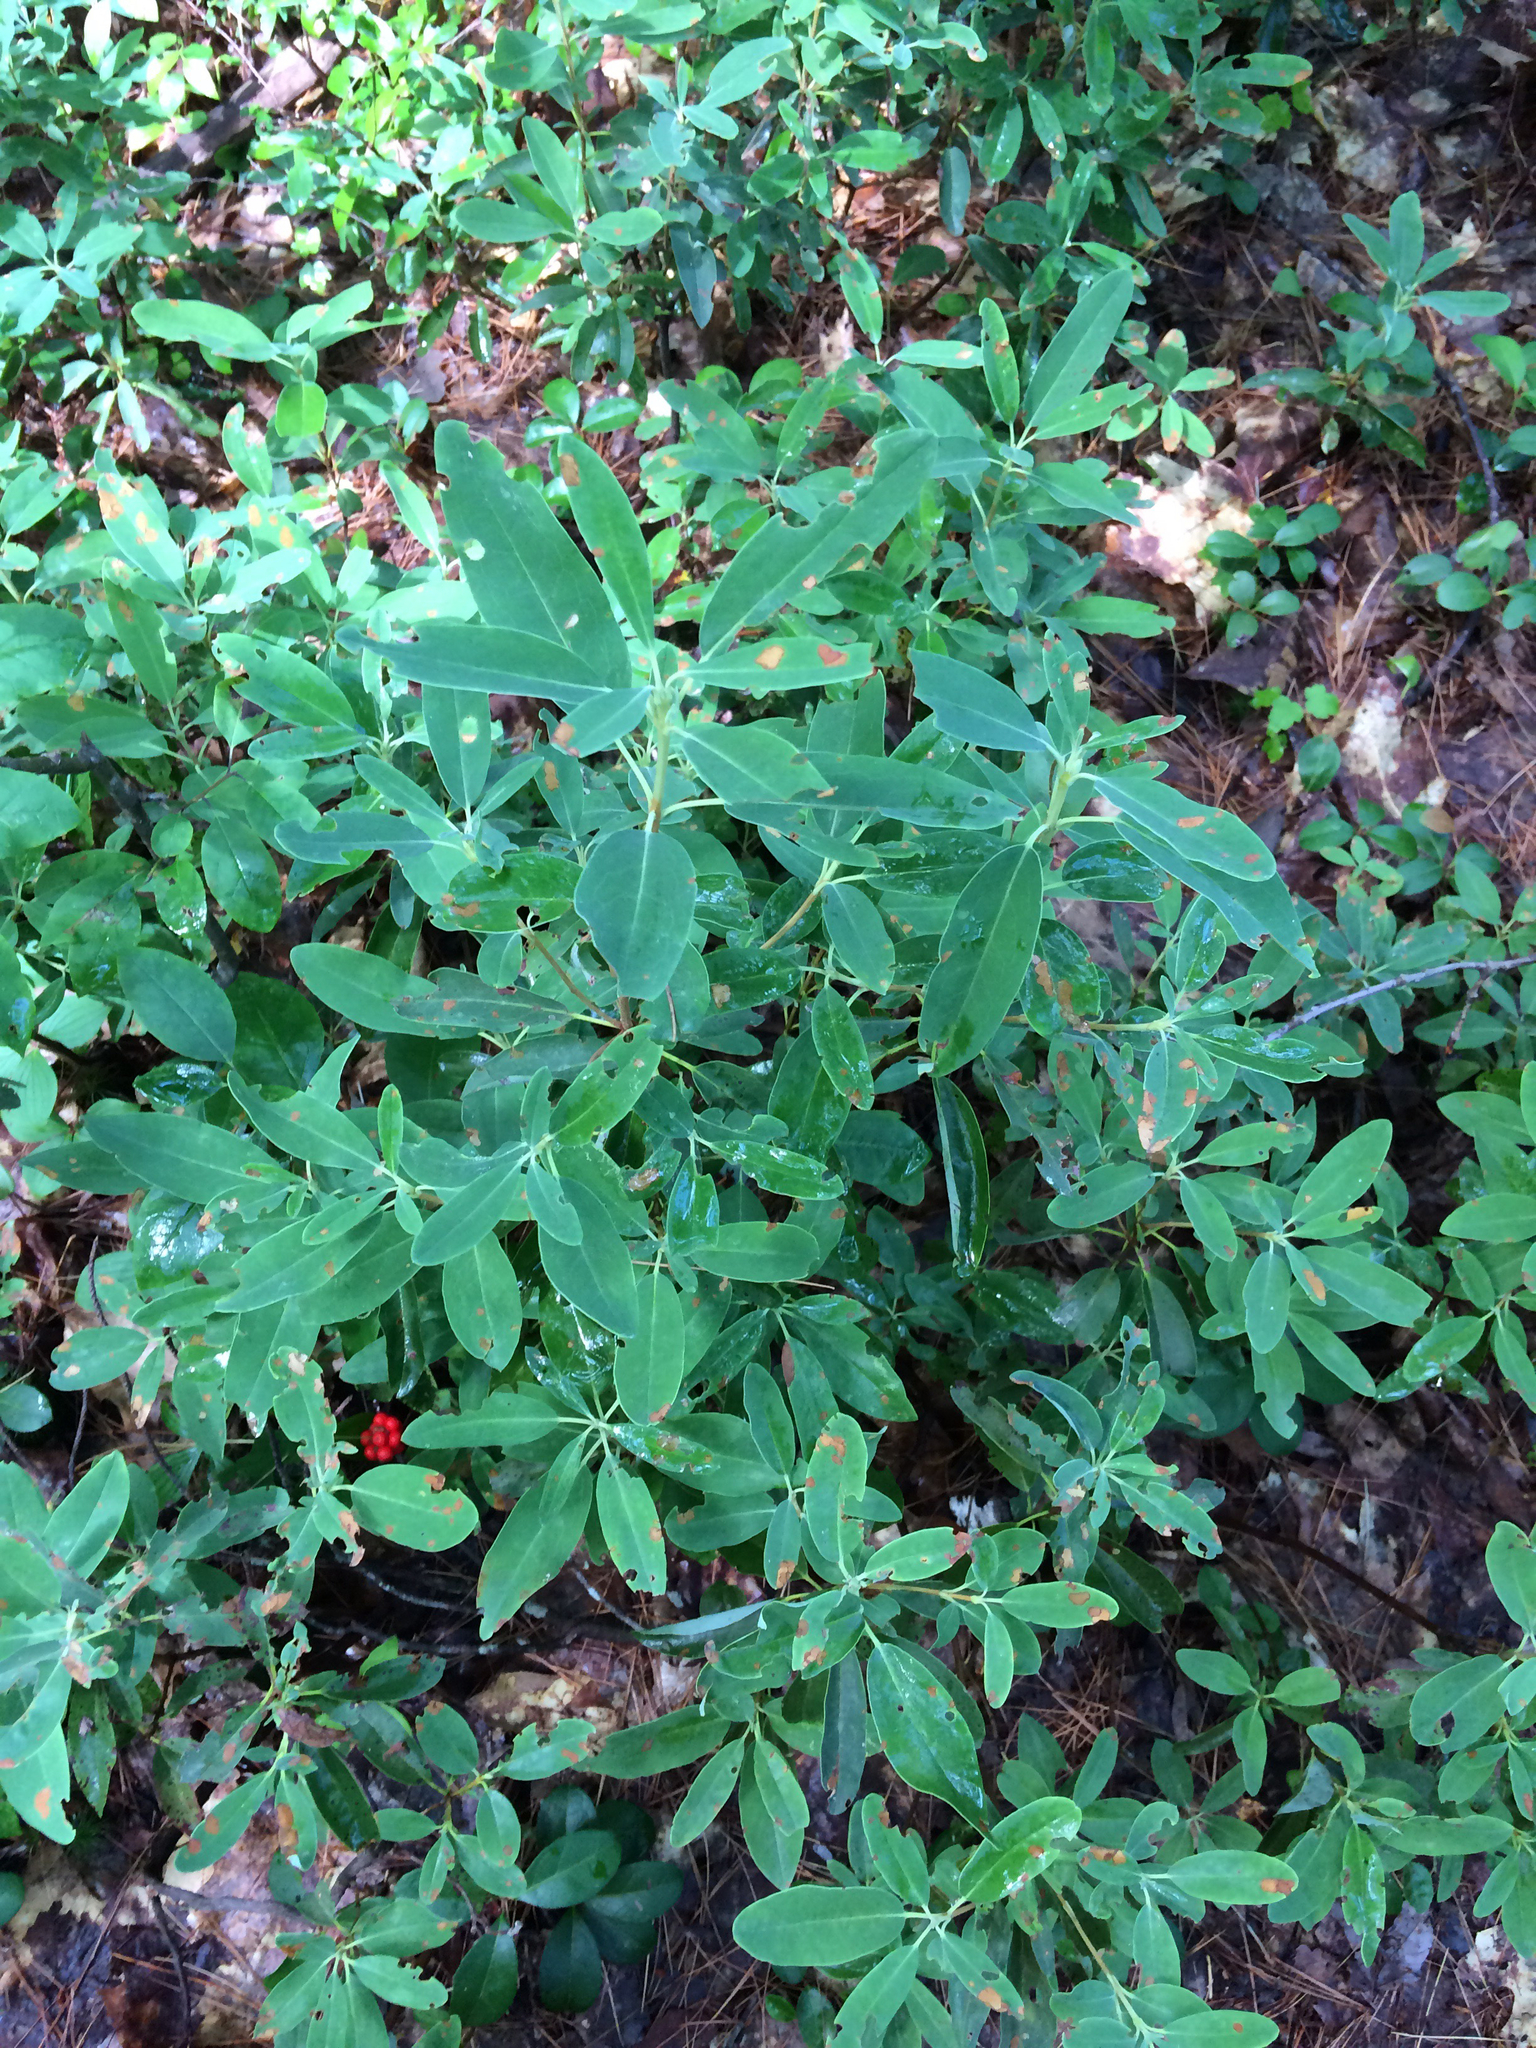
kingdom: Plantae
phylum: Tracheophyta
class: Magnoliopsida
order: Ericales
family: Ericaceae
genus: Kalmia
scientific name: Kalmia angustifolia
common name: Sheep-laurel
